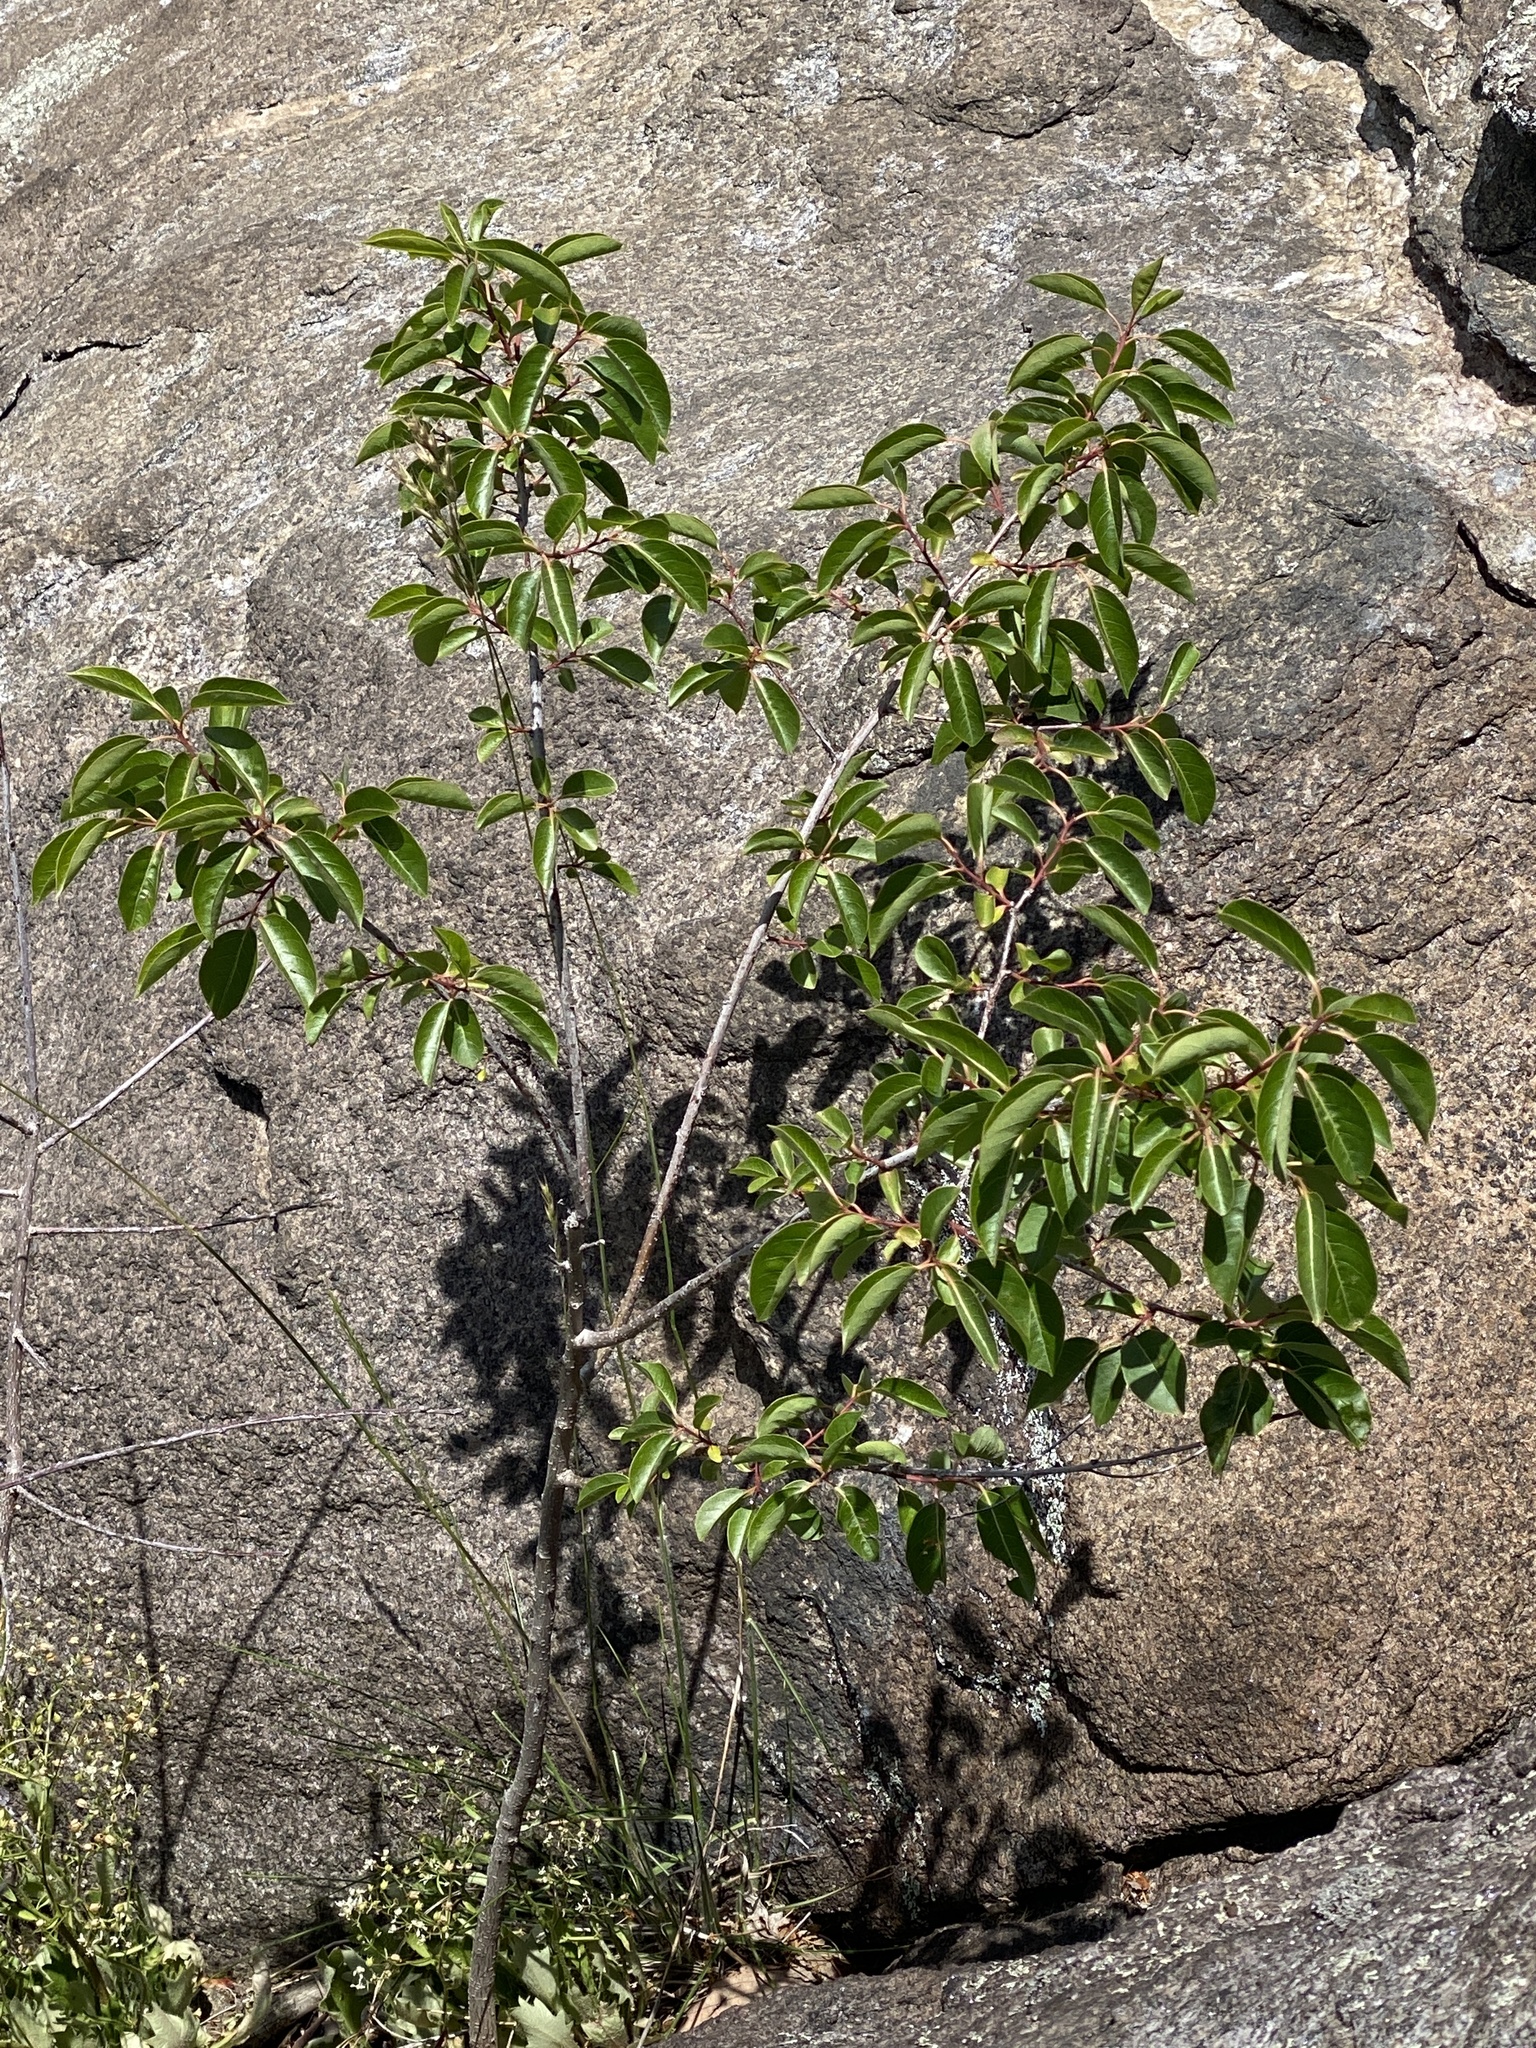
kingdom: Plantae
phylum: Tracheophyta
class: Magnoliopsida
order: Ericales
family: Ebenaceae
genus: Diospyros
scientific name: Diospyros virginiana
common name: Persimmon
